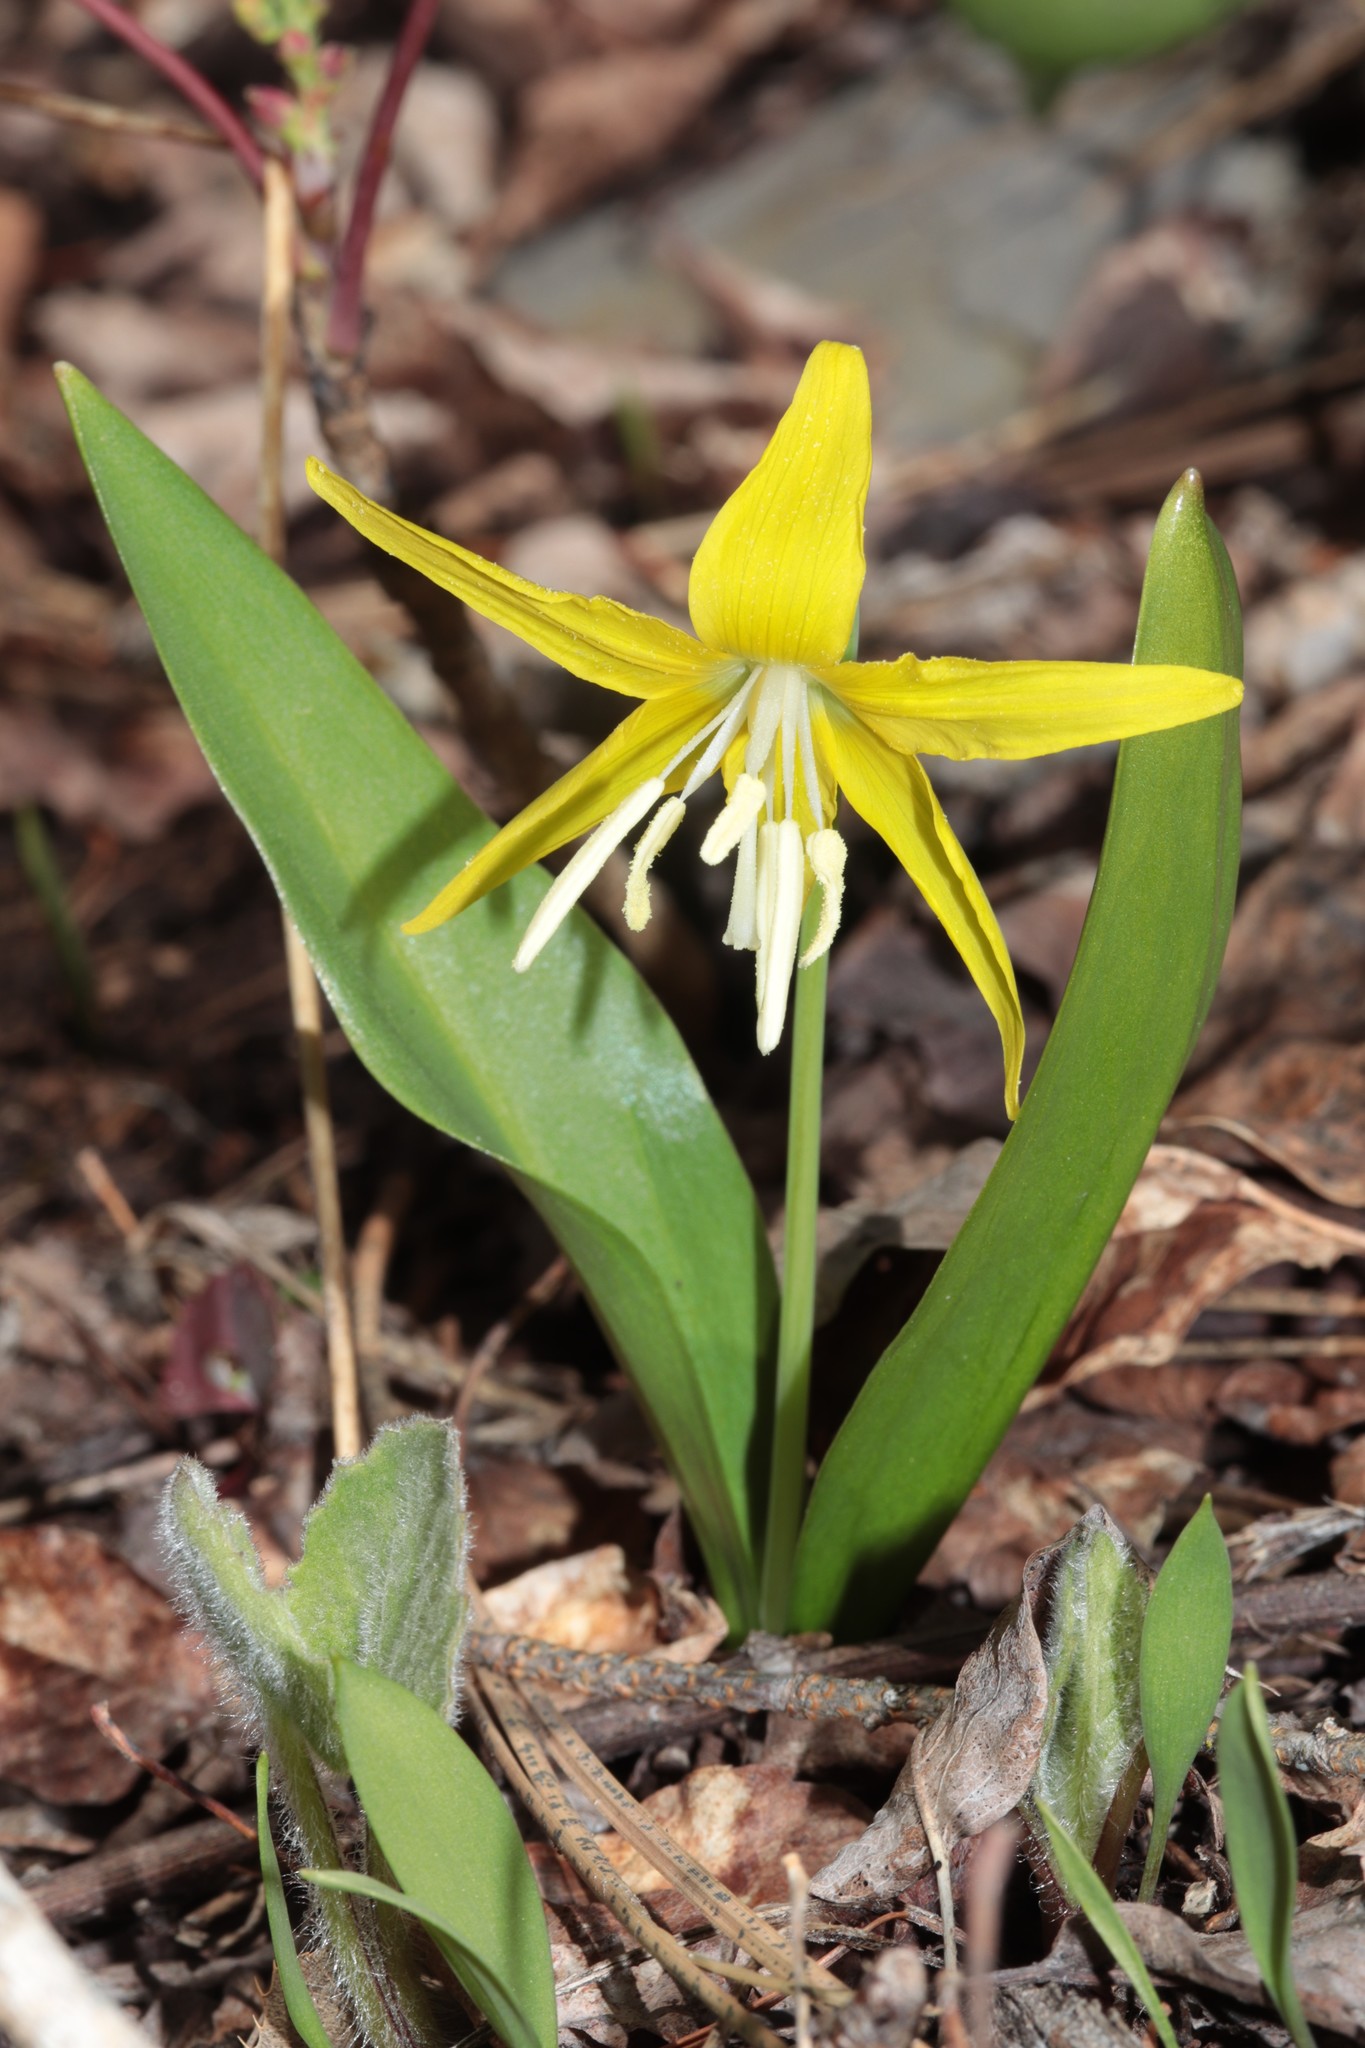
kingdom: Plantae
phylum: Tracheophyta
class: Liliopsida
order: Liliales
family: Liliaceae
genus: Erythronium
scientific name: Erythronium grandiflorum
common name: Avalanche-lily
